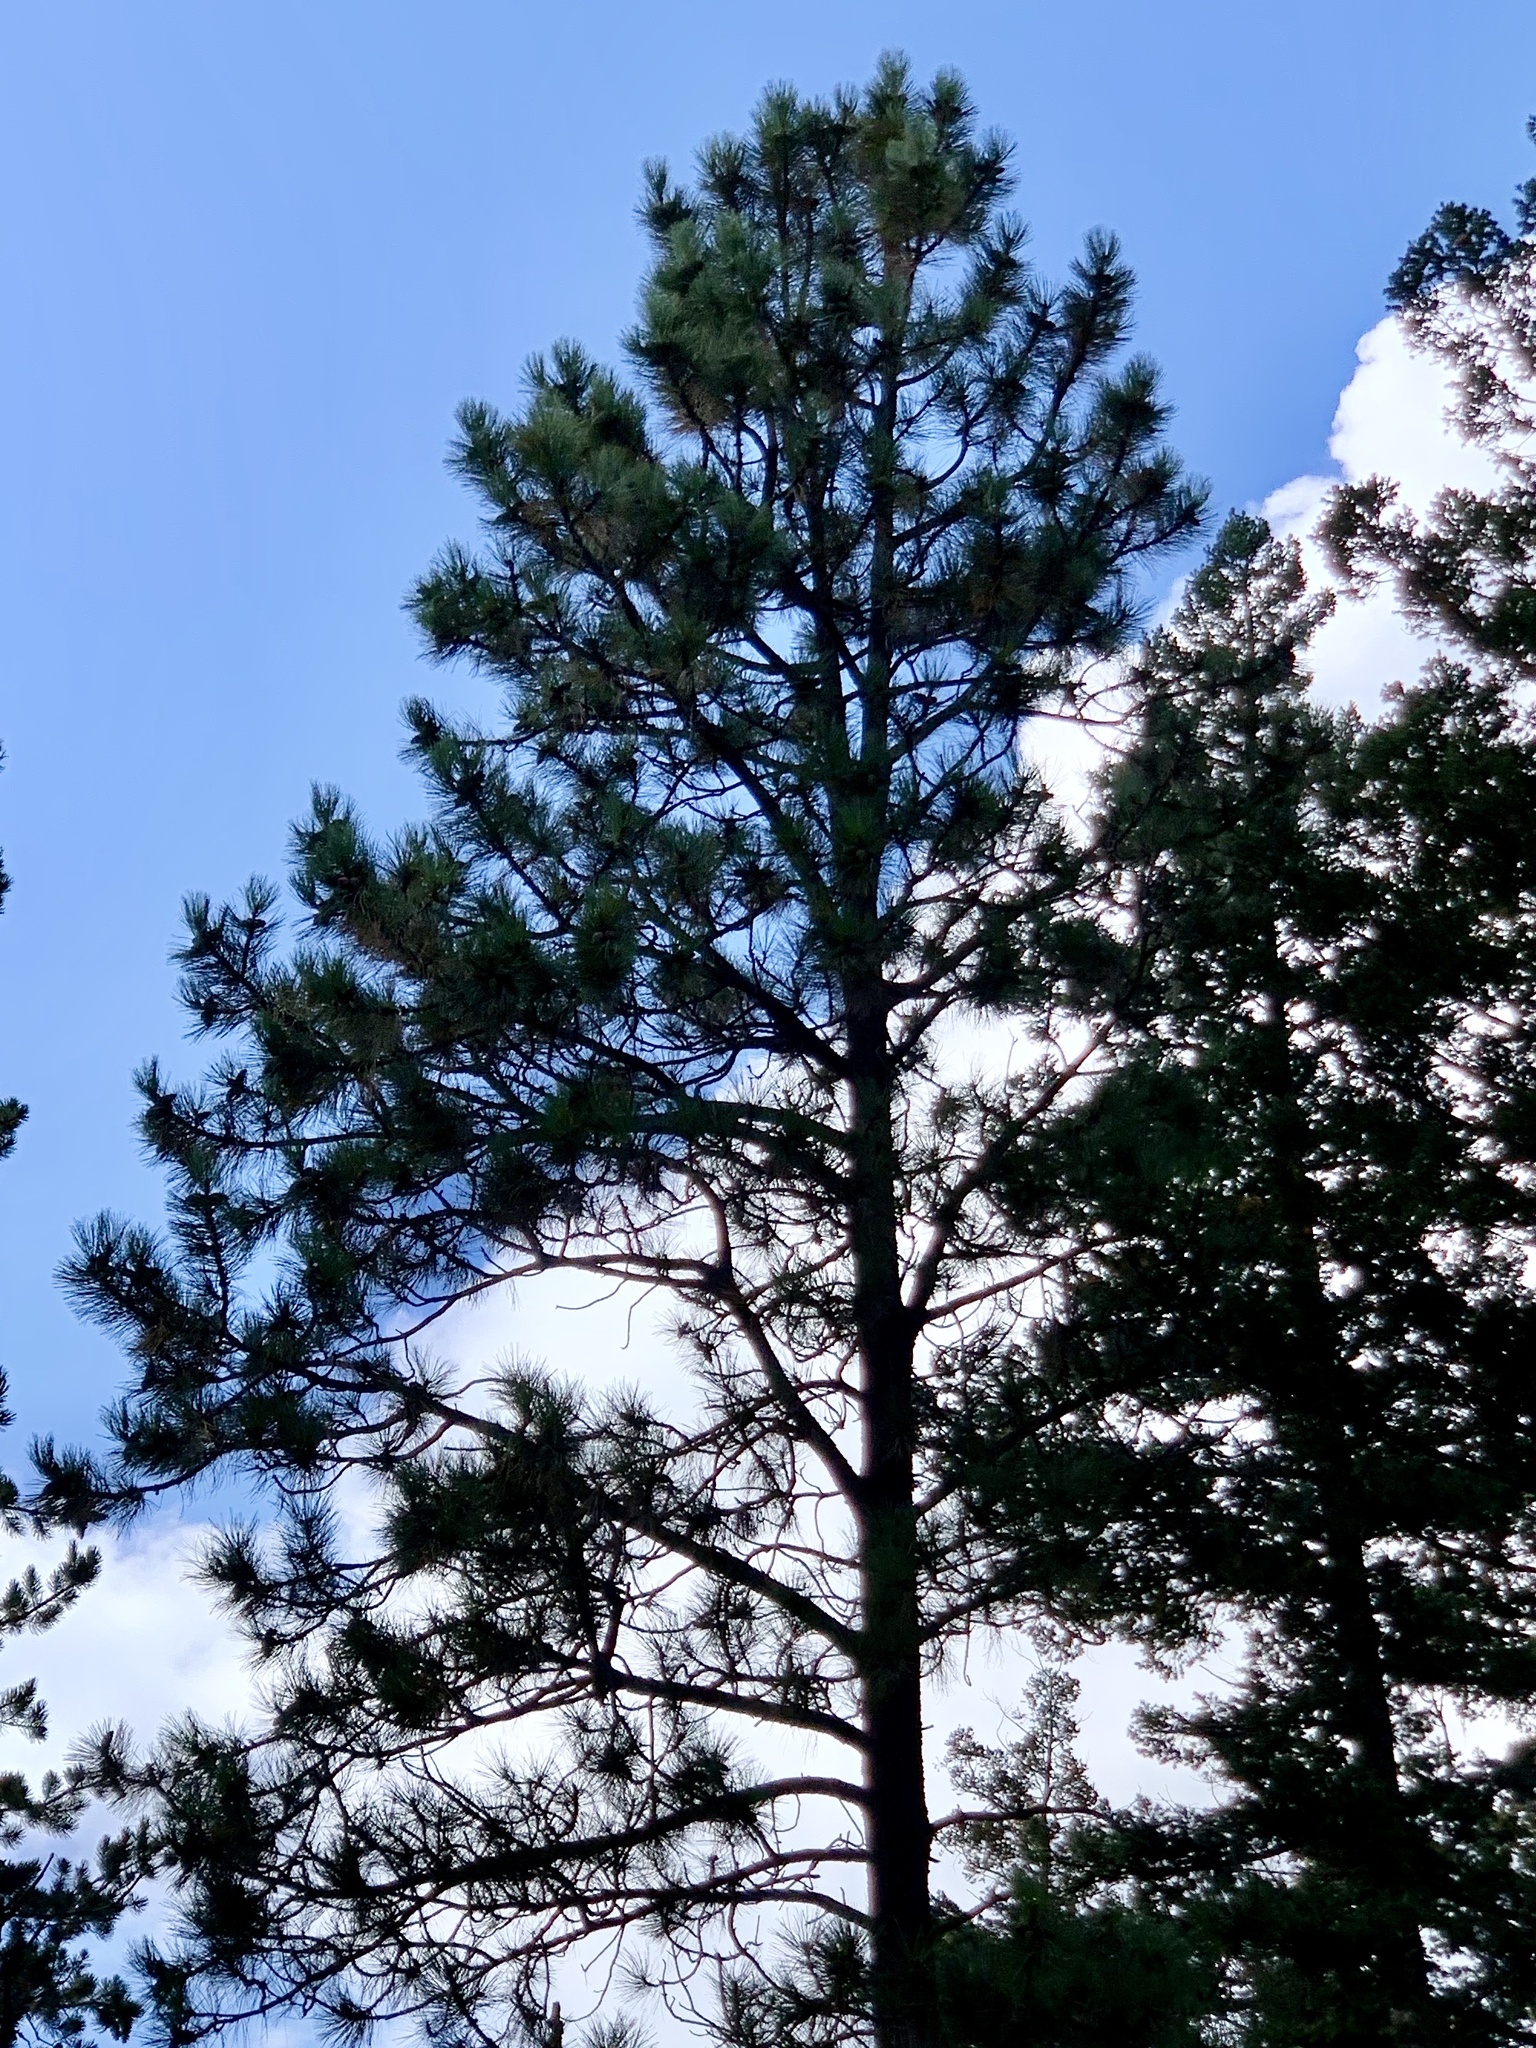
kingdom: Plantae
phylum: Tracheophyta
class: Pinopsida
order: Pinales
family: Pinaceae
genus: Pinus
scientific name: Pinus ponderosa
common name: Western yellow-pine
